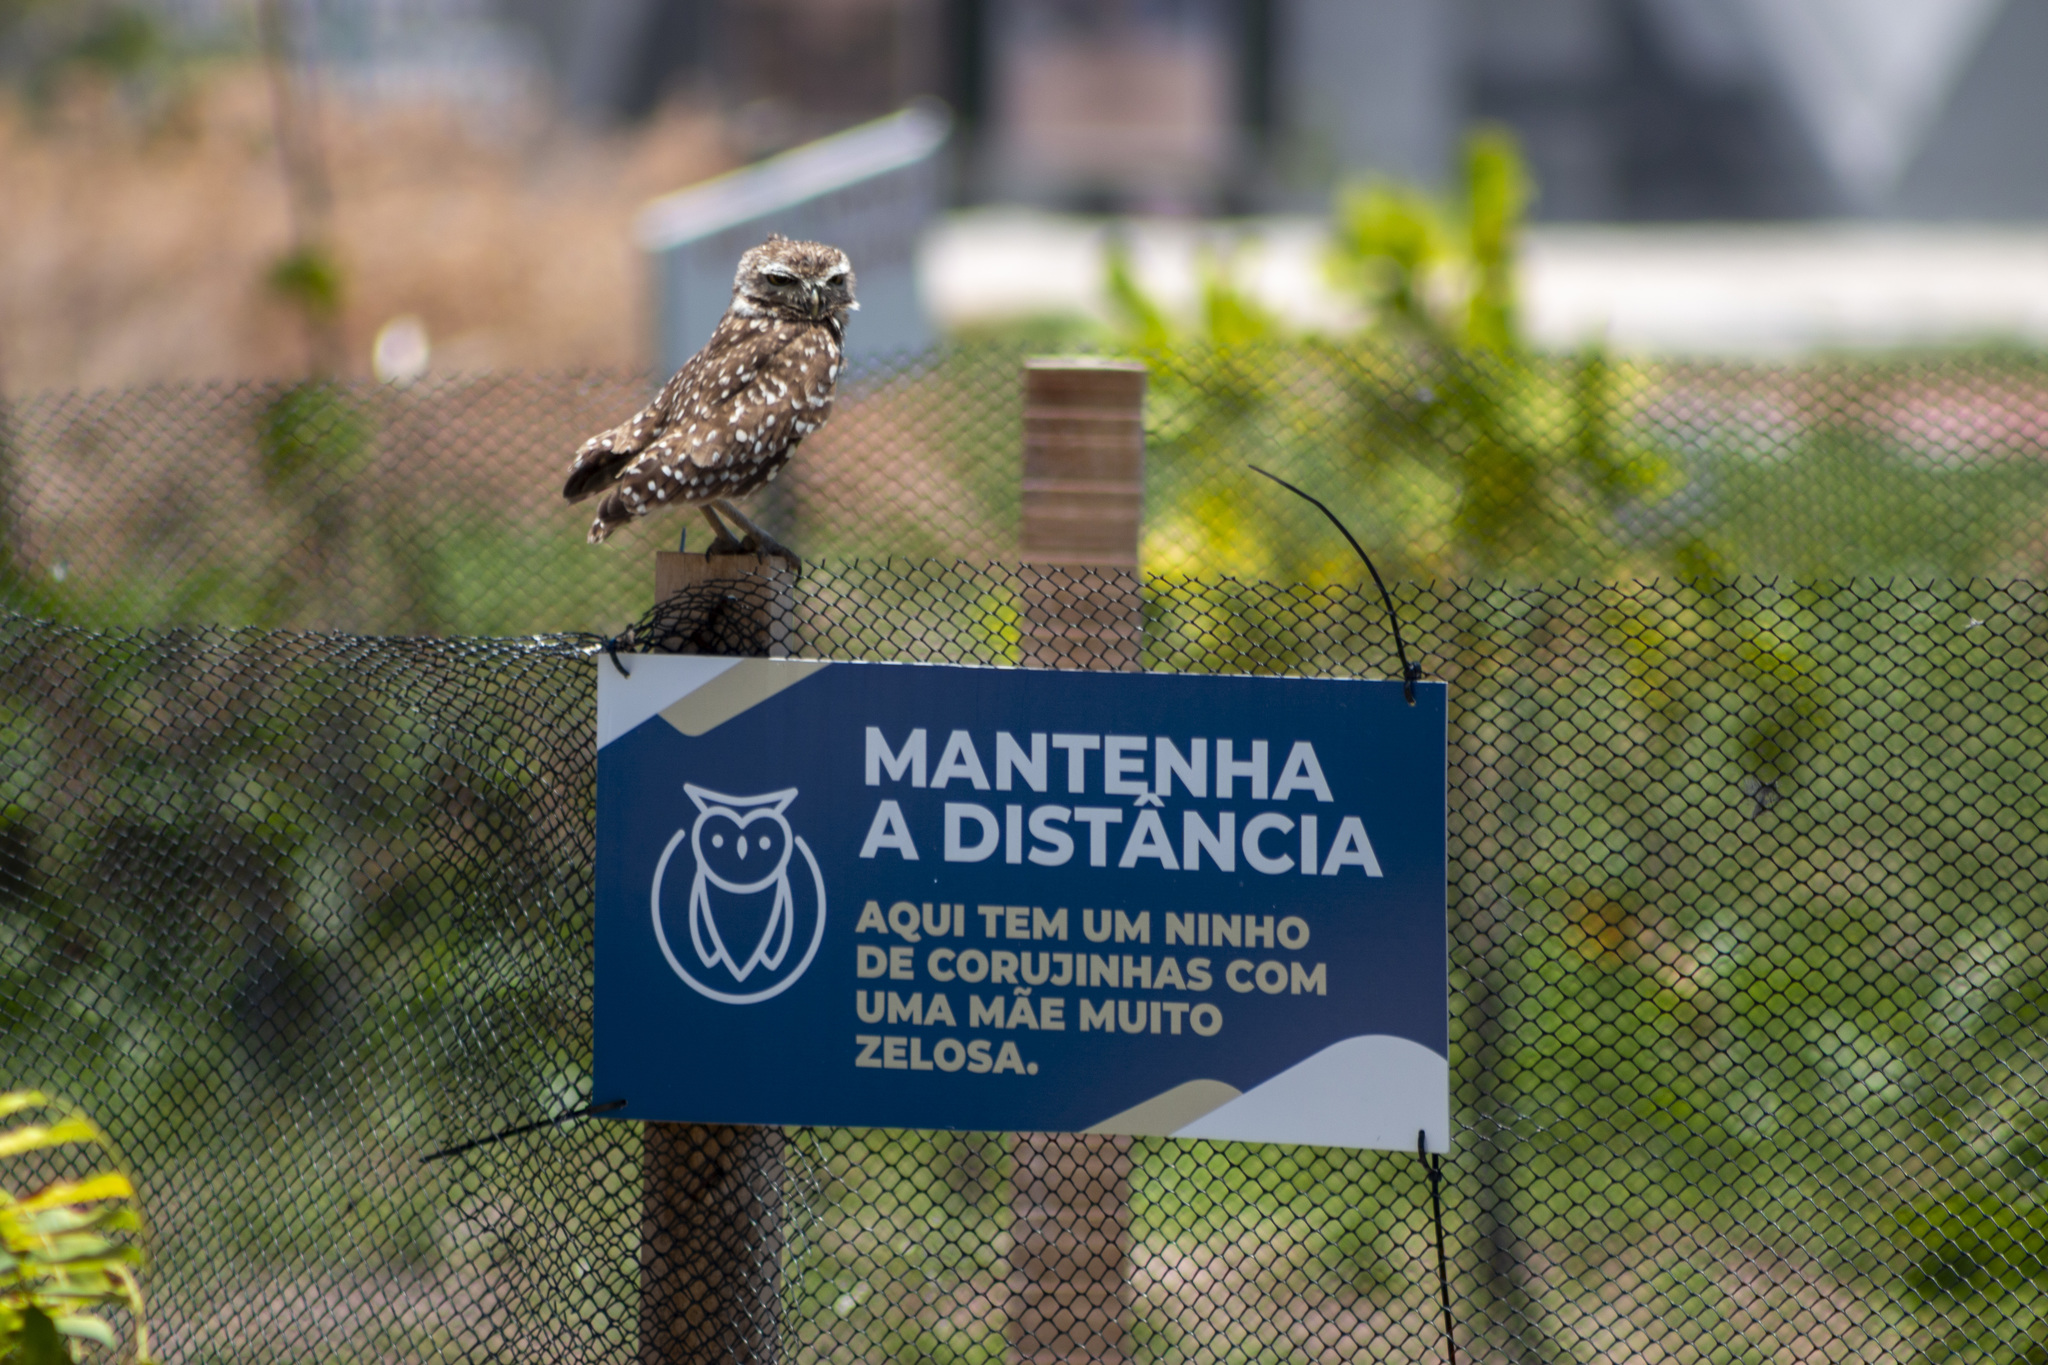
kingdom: Animalia
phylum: Chordata
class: Aves
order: Strigiformes
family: Strigidae
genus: Athene
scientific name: Athene cunicularia
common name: Burrowing owl
